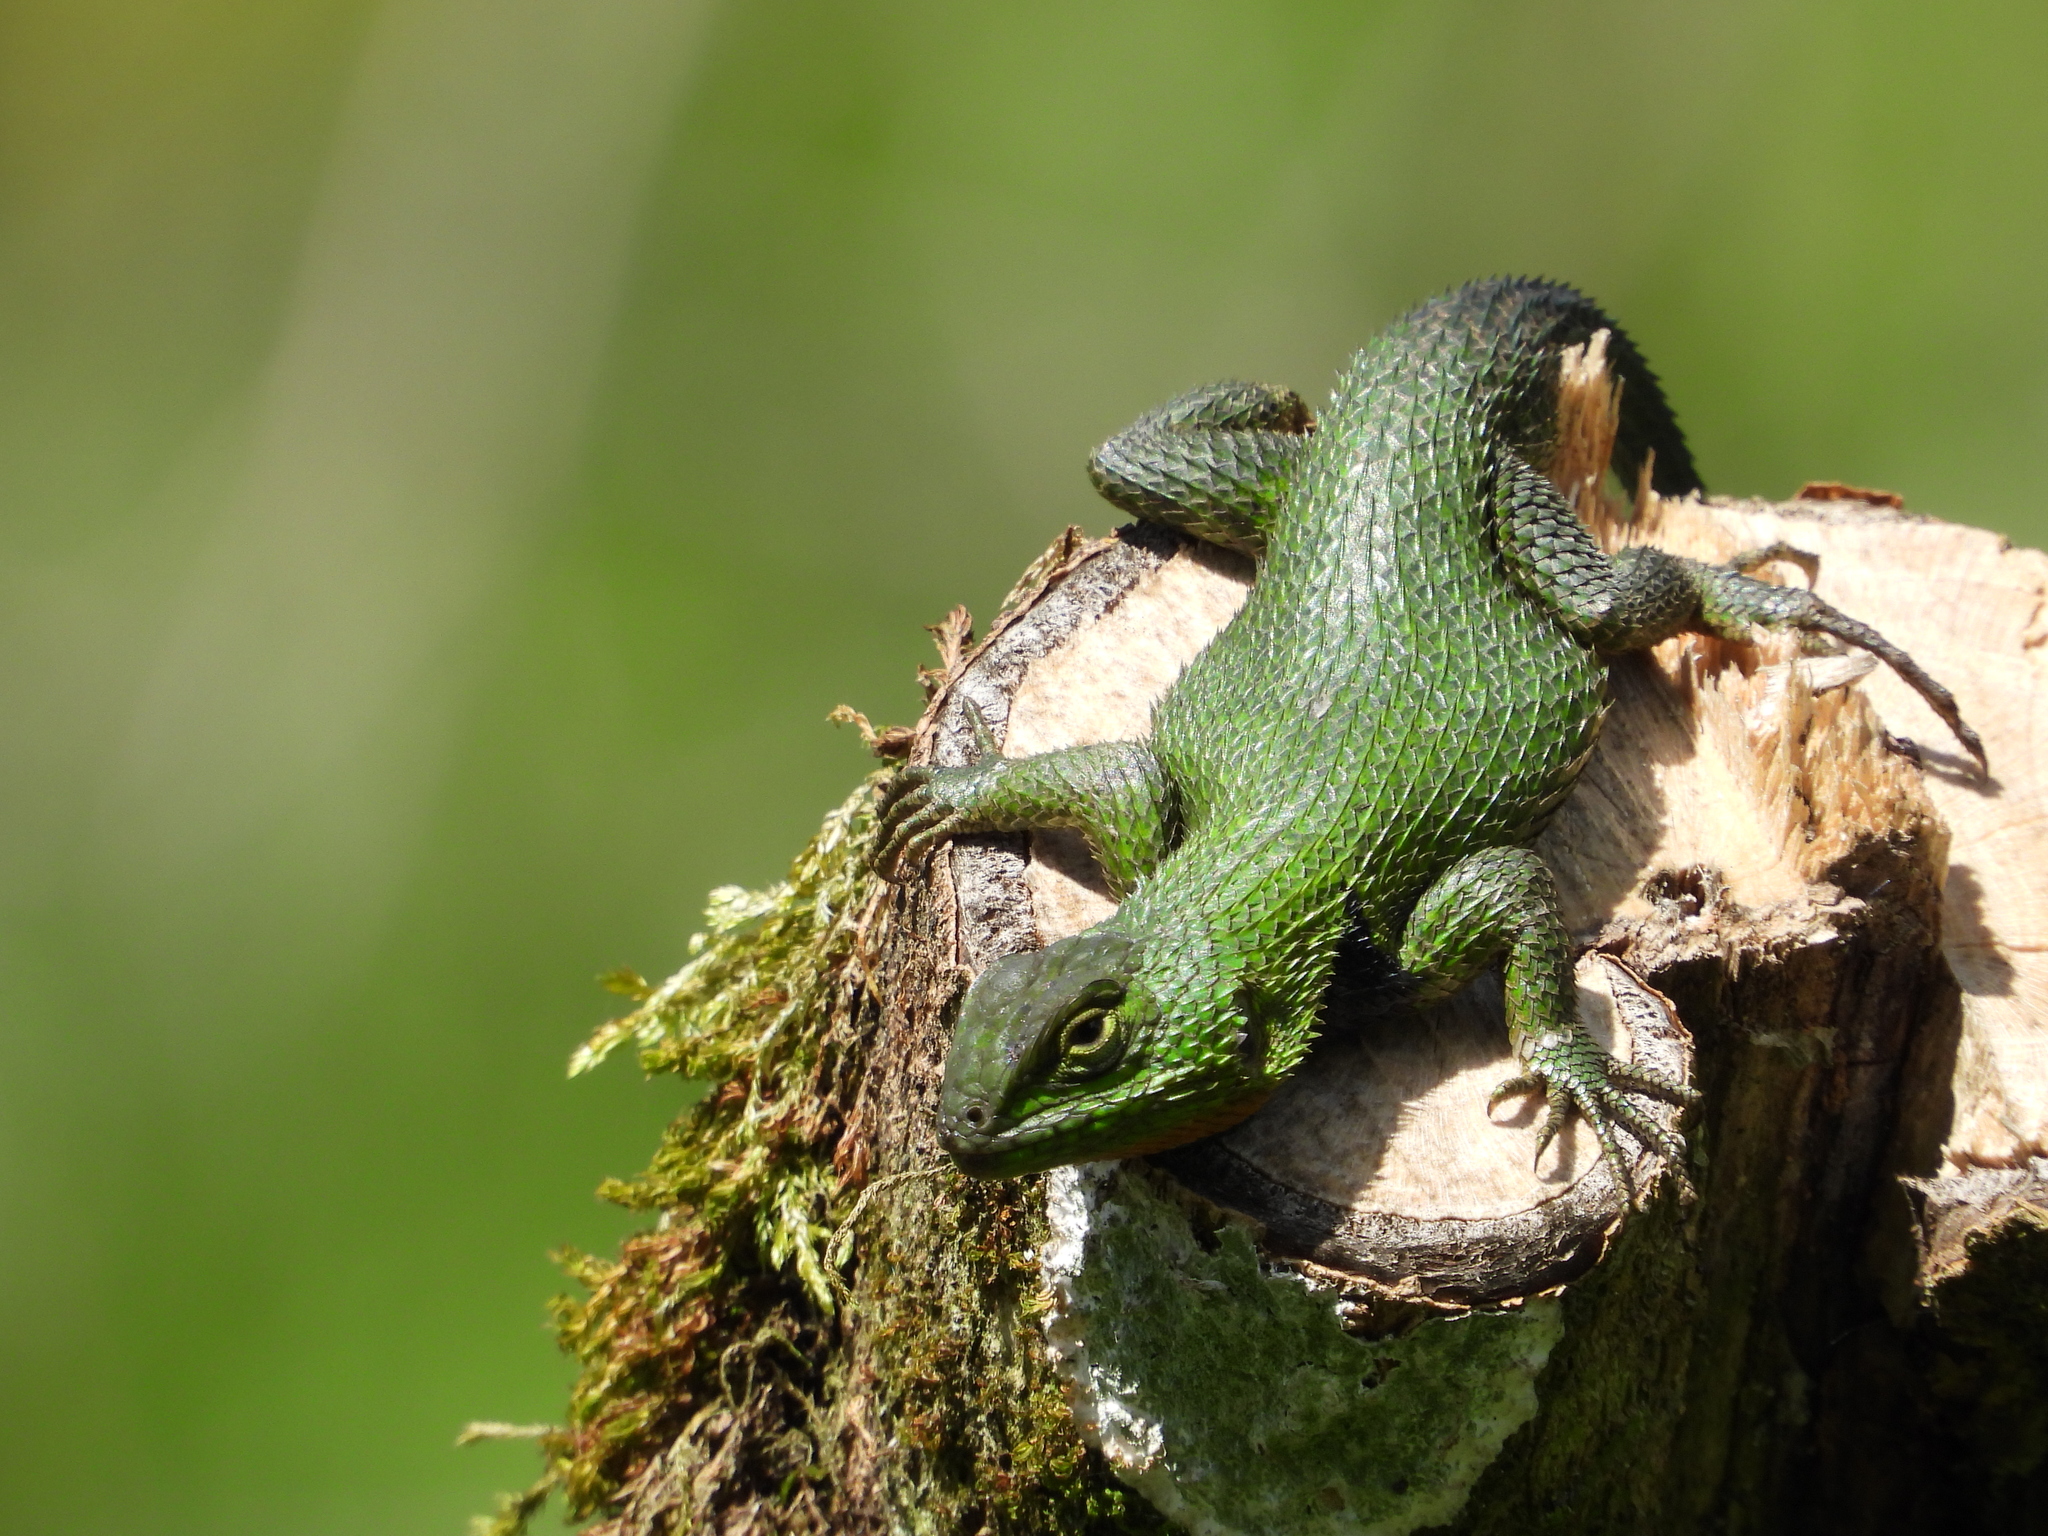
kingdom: Animalia
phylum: Chordata
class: Squamata
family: Phrynosomatidae
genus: Sceloporus
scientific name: Sceloporus formosus
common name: Mexican emerald spiny lizard
